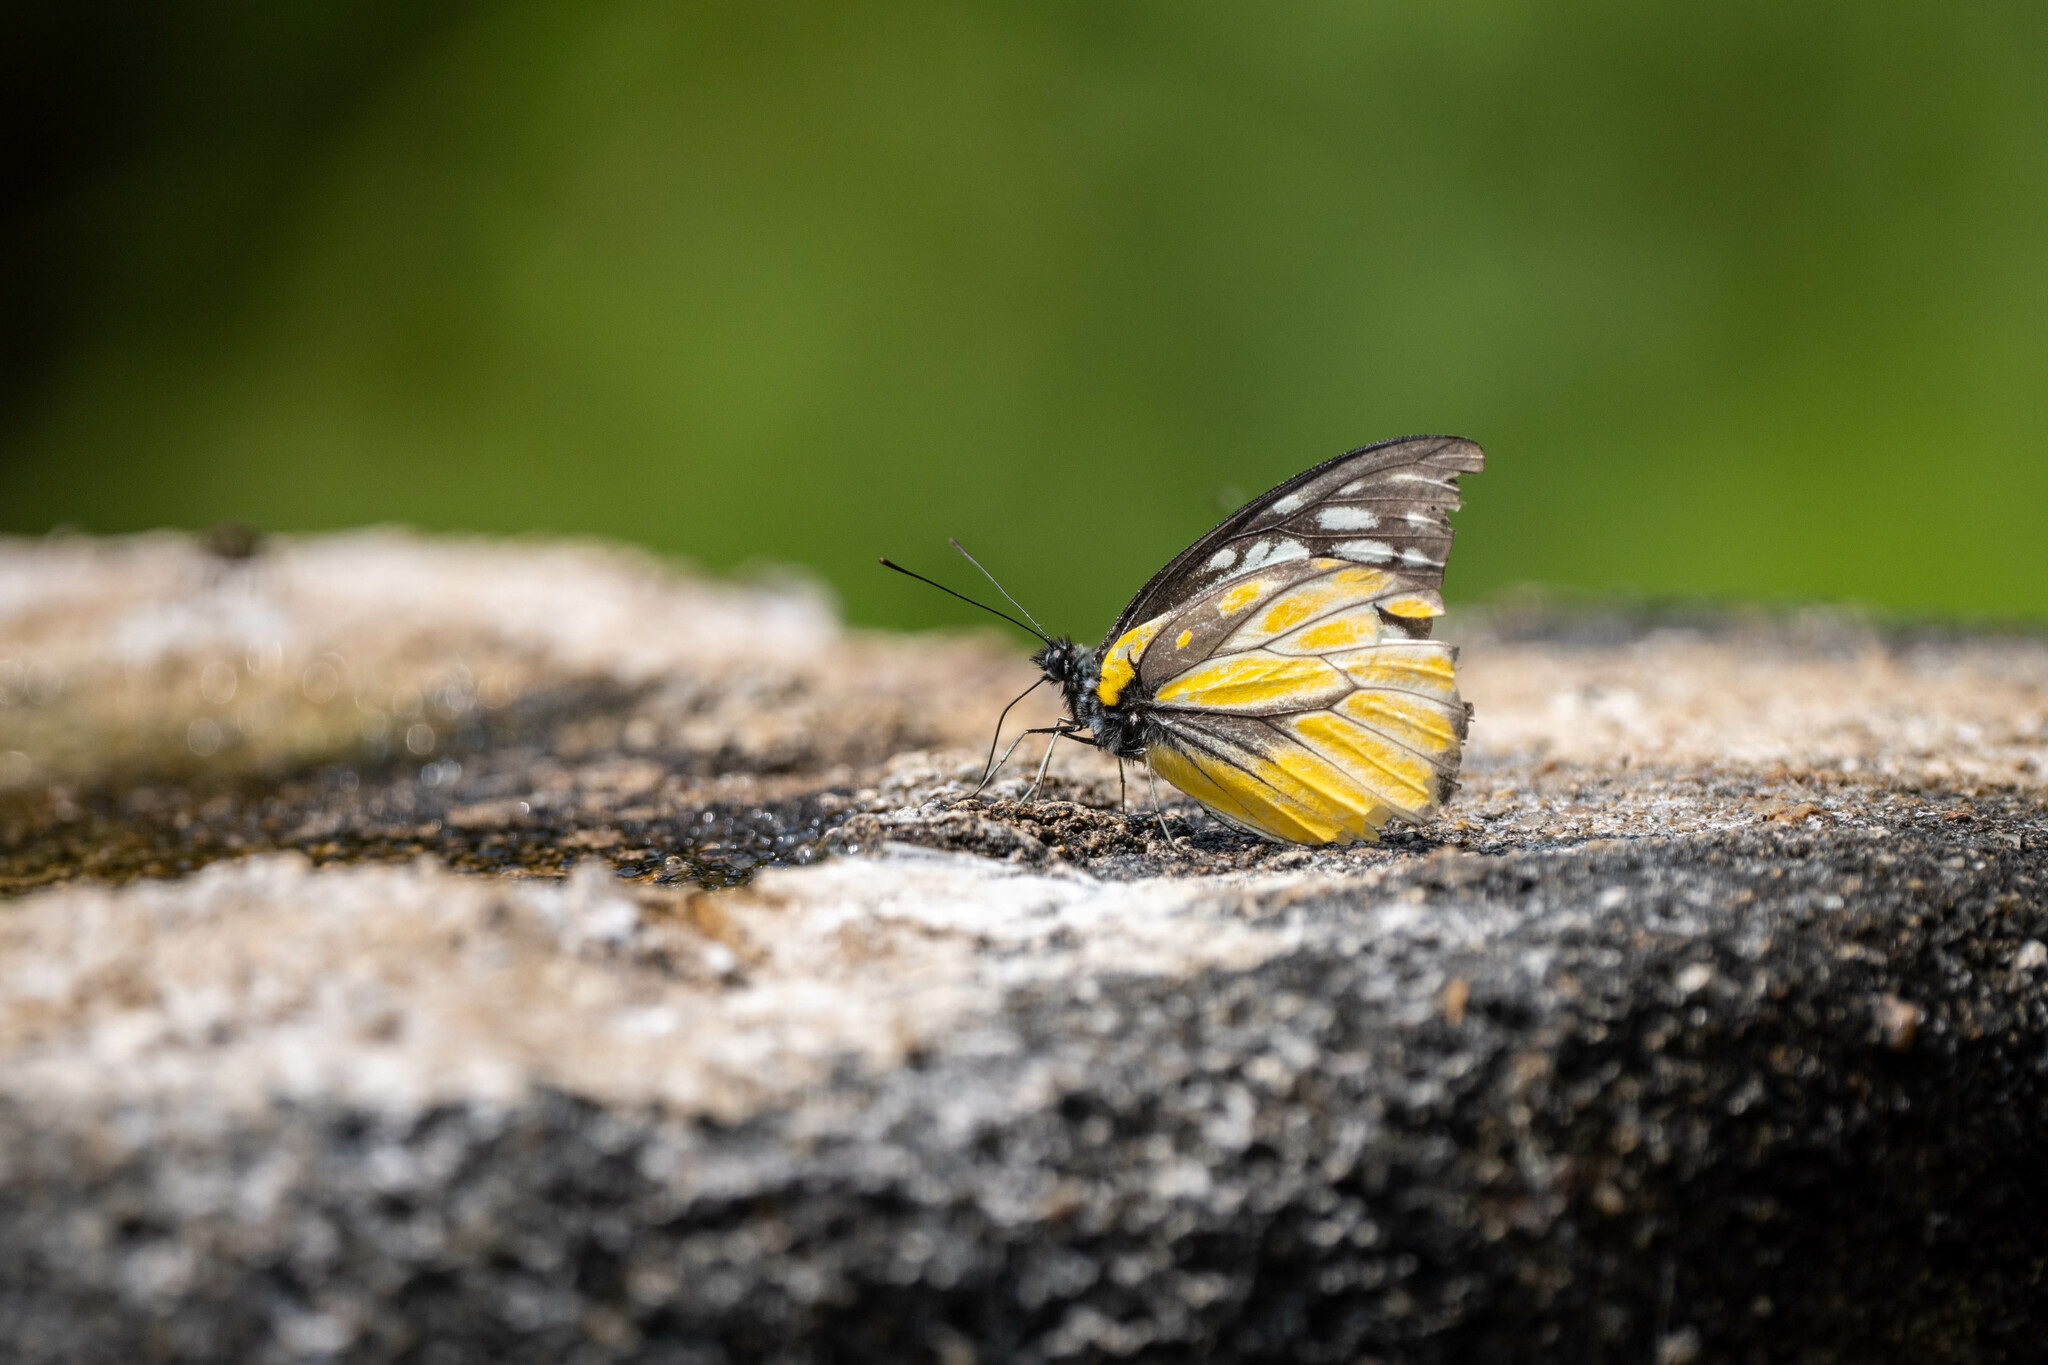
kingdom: Animalia
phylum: Arthropoda
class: Insecta
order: Lepidoptera
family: Pieridae
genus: Prioneris
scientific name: Prioneris thestylis
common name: Spotted sawtooth
